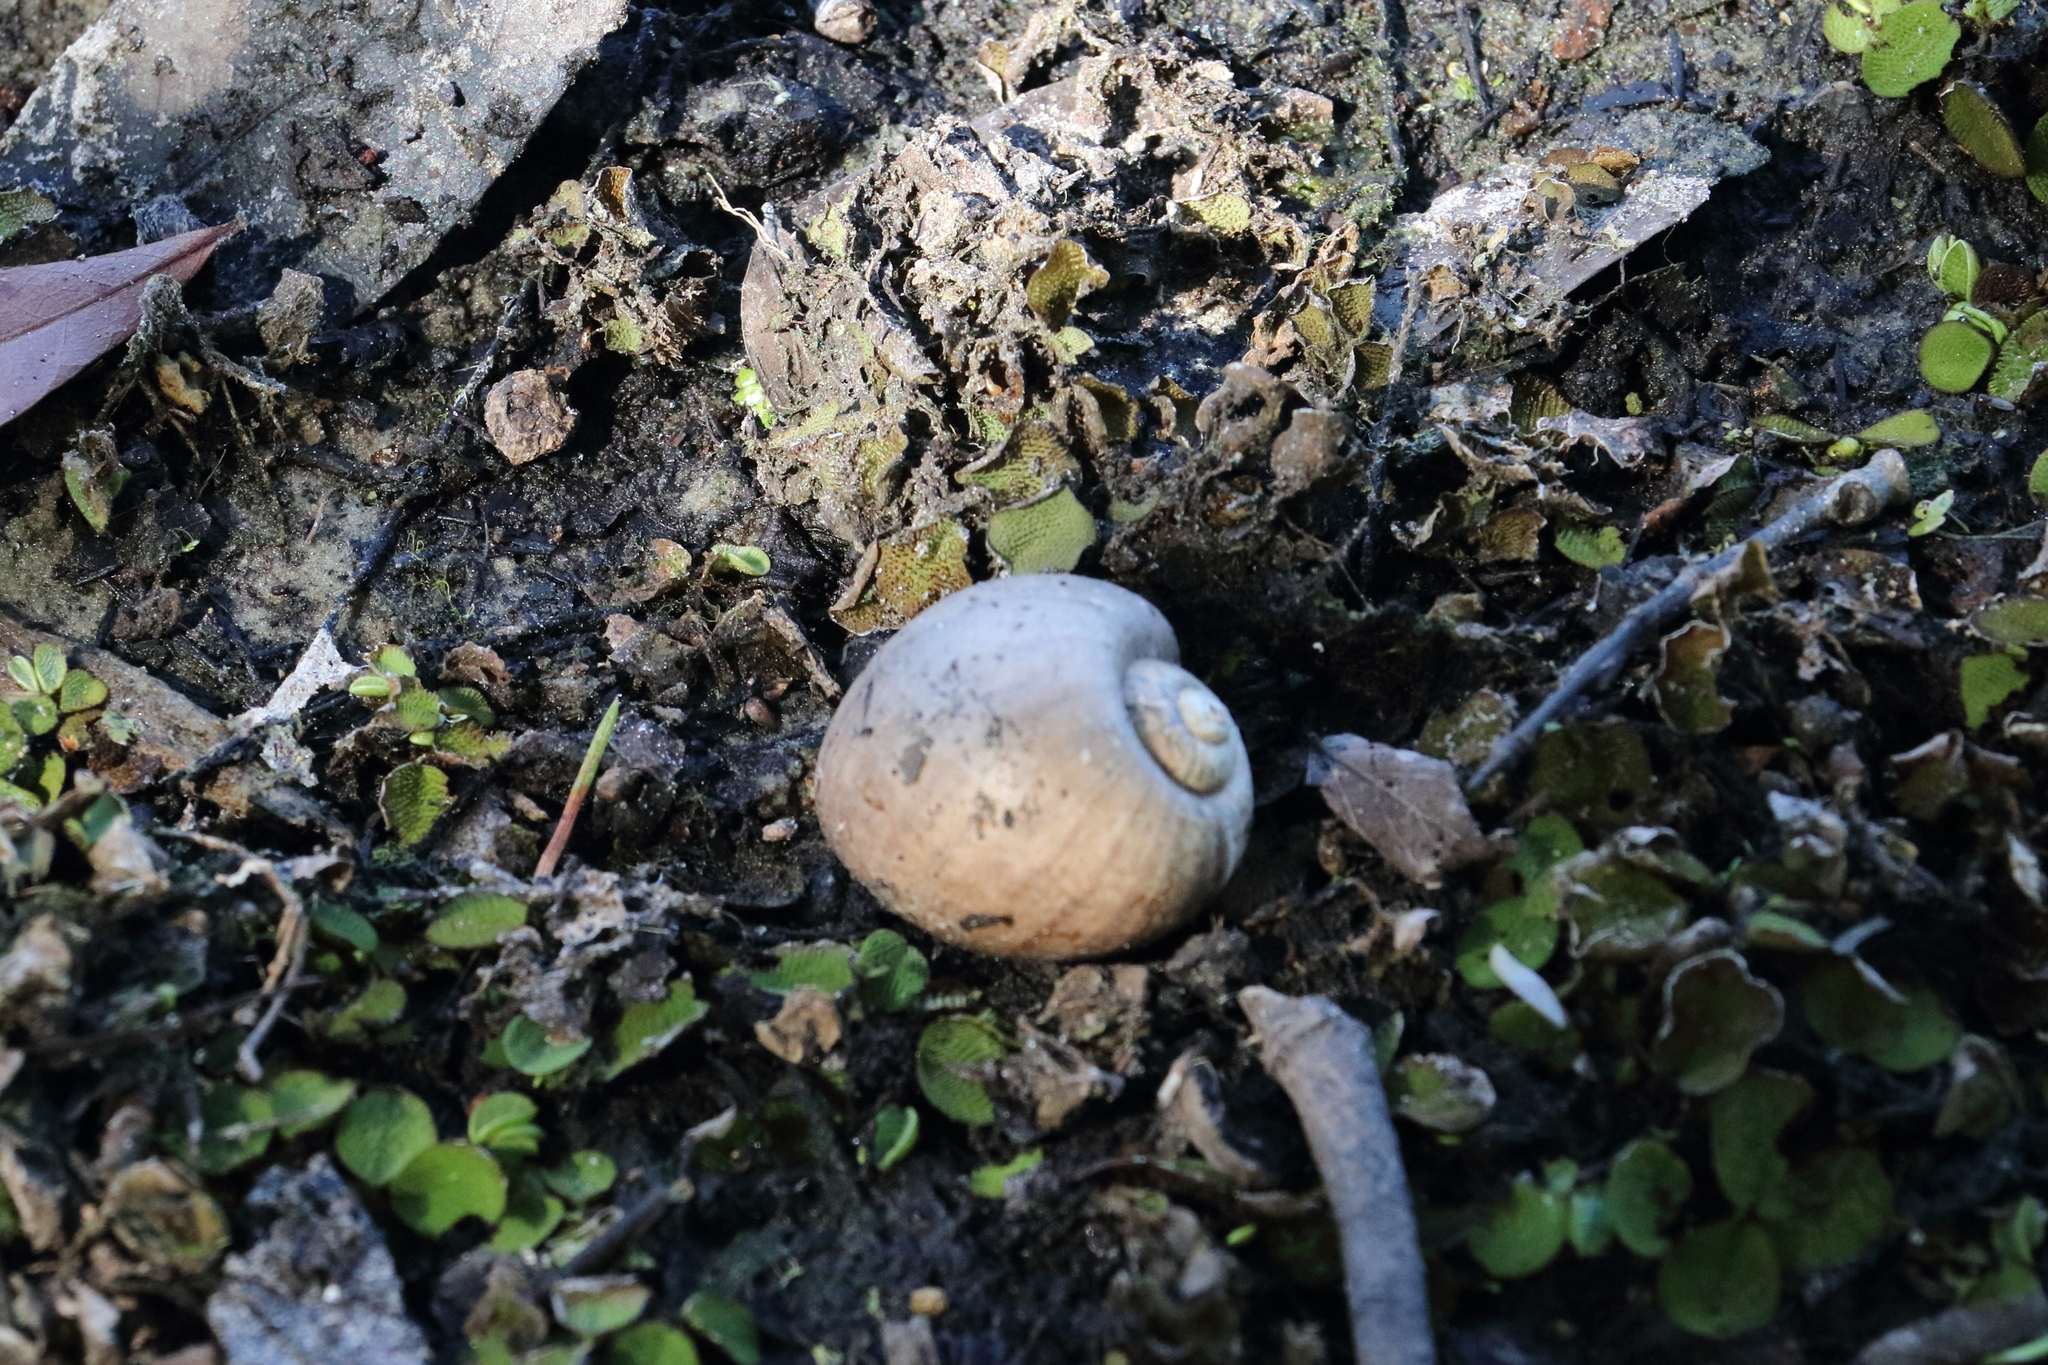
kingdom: Animalia
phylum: Mollusca
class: Gastropoda
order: Architaenioglossa
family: Ampullariidae
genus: Pomacea
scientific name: Pomacea maculata
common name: Giant applesnail
